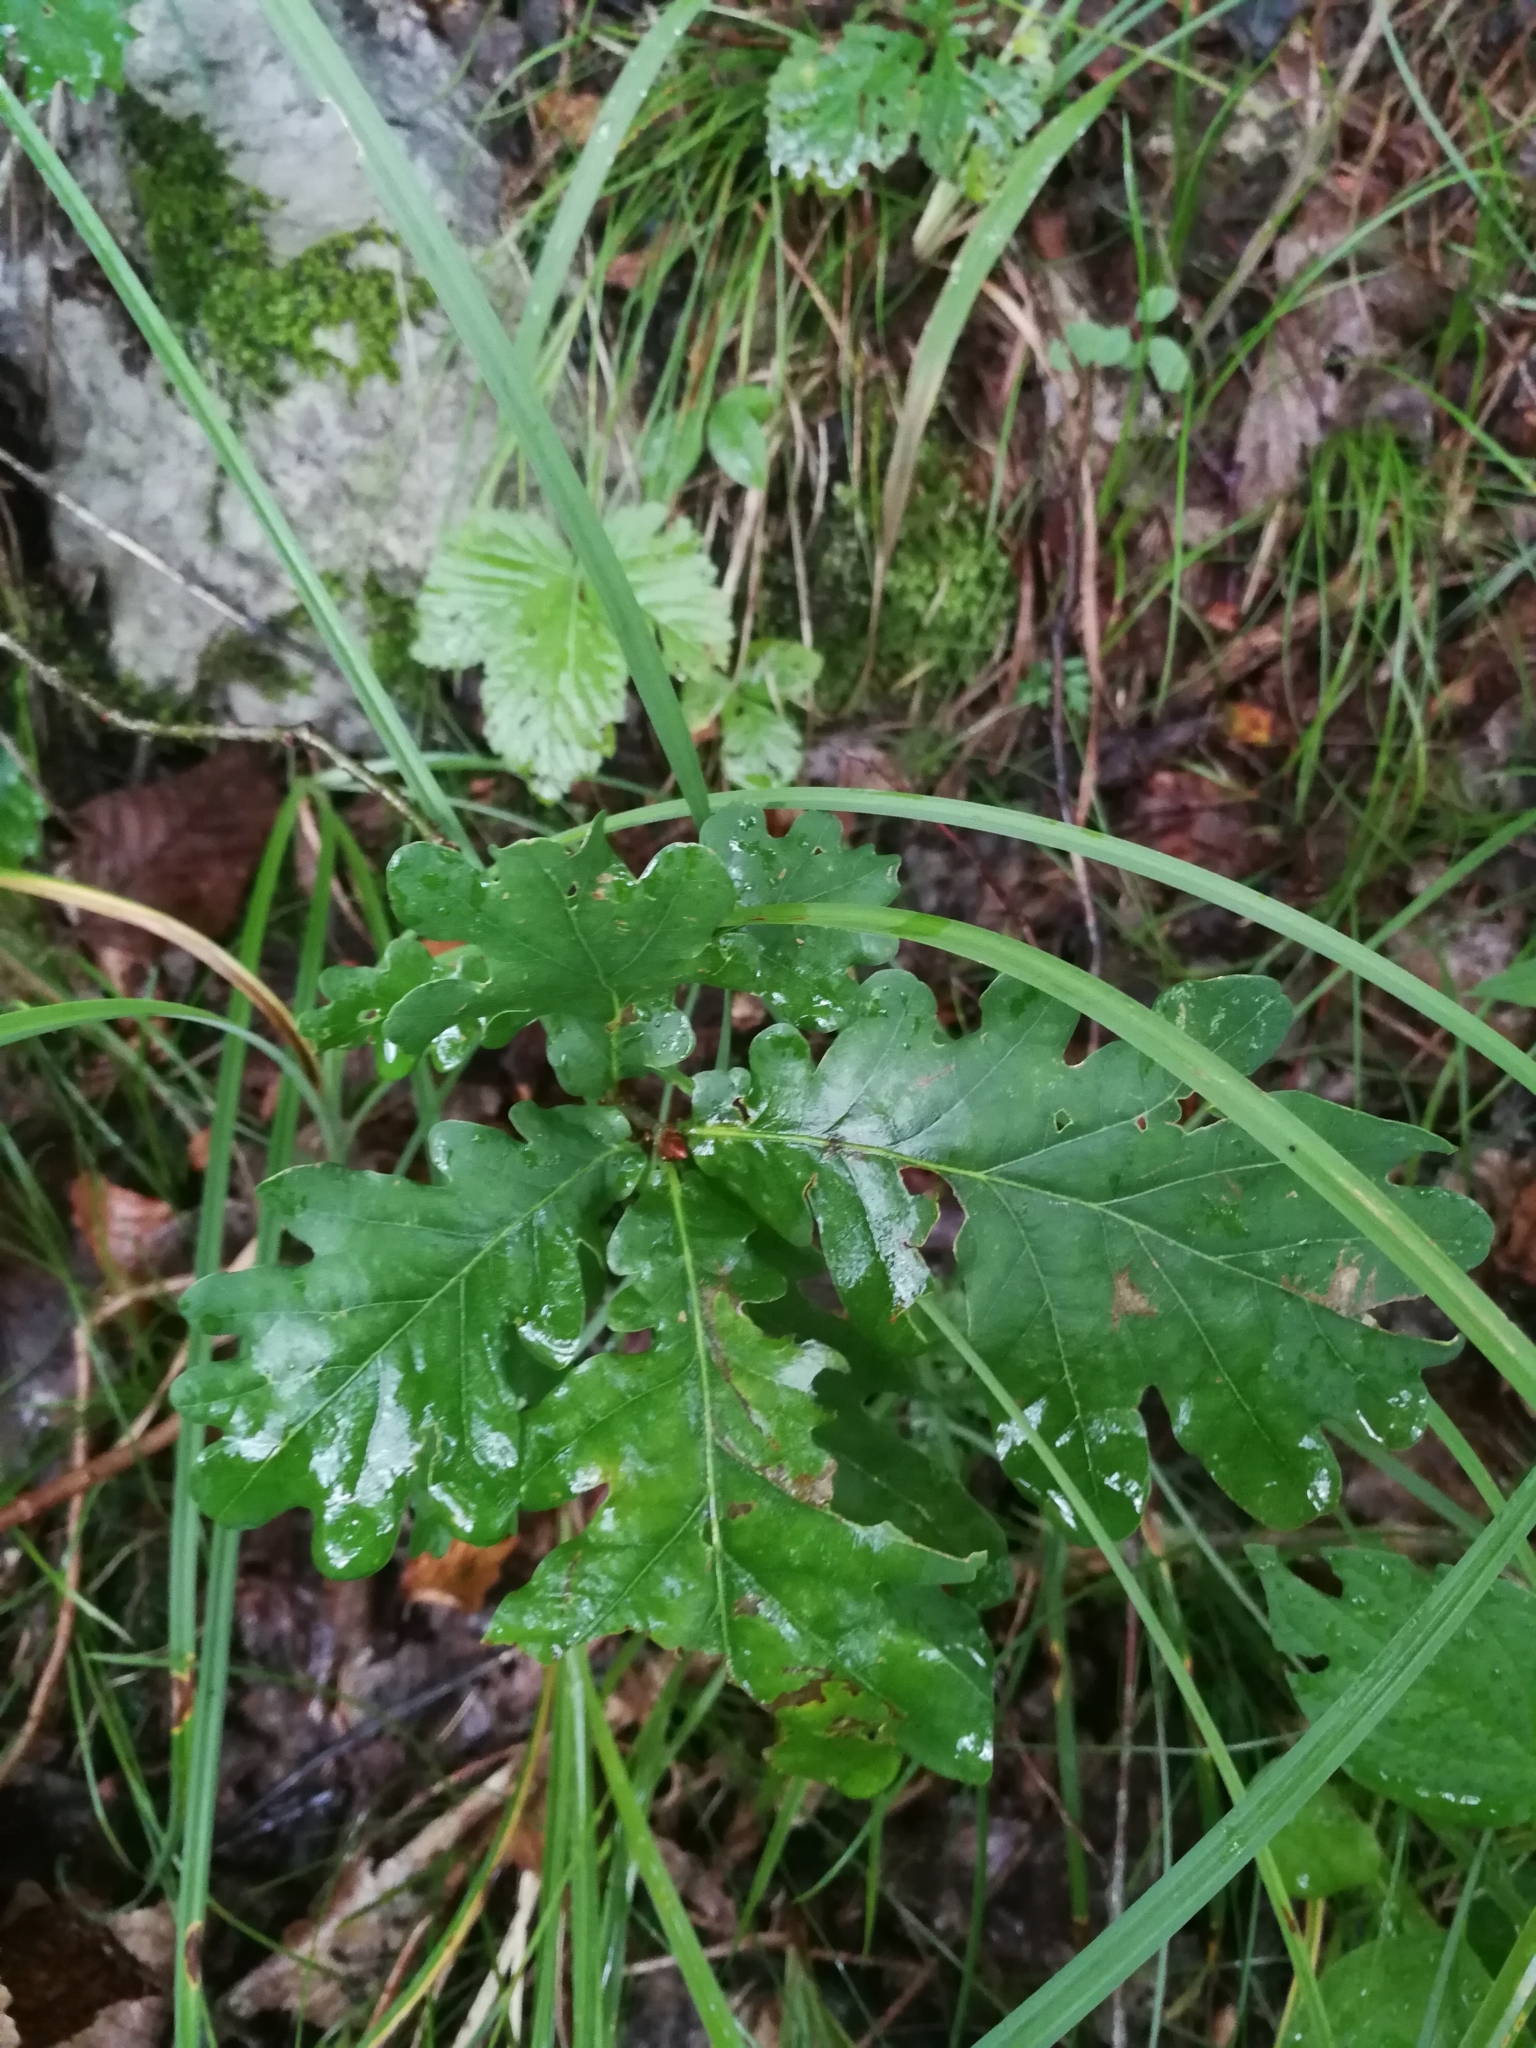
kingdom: Plantae
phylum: Tracheophyta
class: Magnoliopsida
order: Fagales
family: Fagaceae
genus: Quercus
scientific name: Quercus robur
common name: Pedunculate oak
